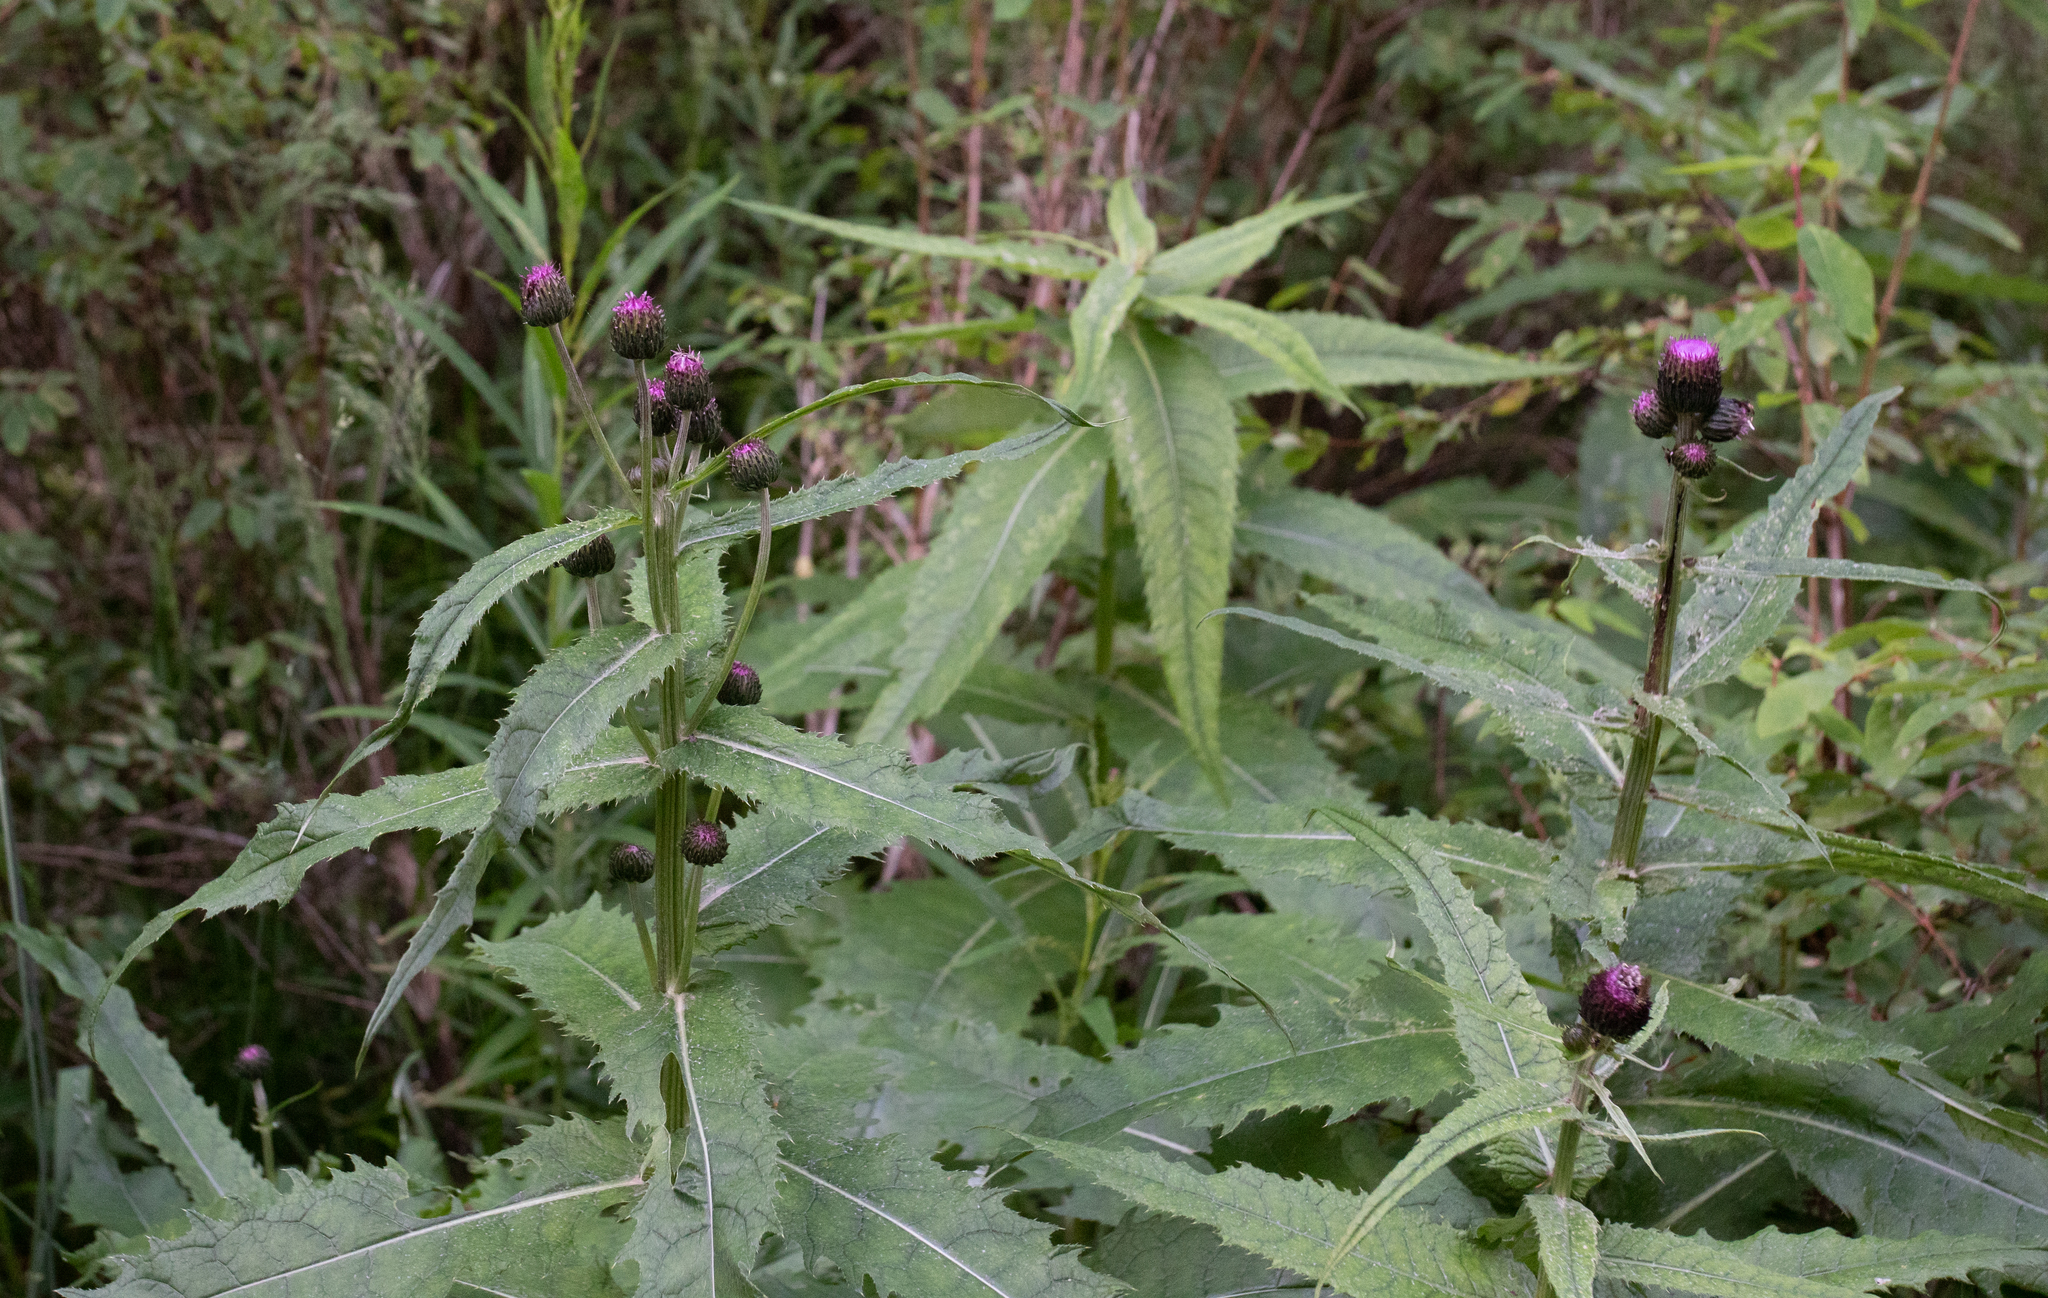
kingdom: Plantae
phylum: Tracheophyta
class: Magnoliopsida
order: Asterales
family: Asteraceae
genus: Cirsium
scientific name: Cirsium helenioides
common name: Melancholy thistle
